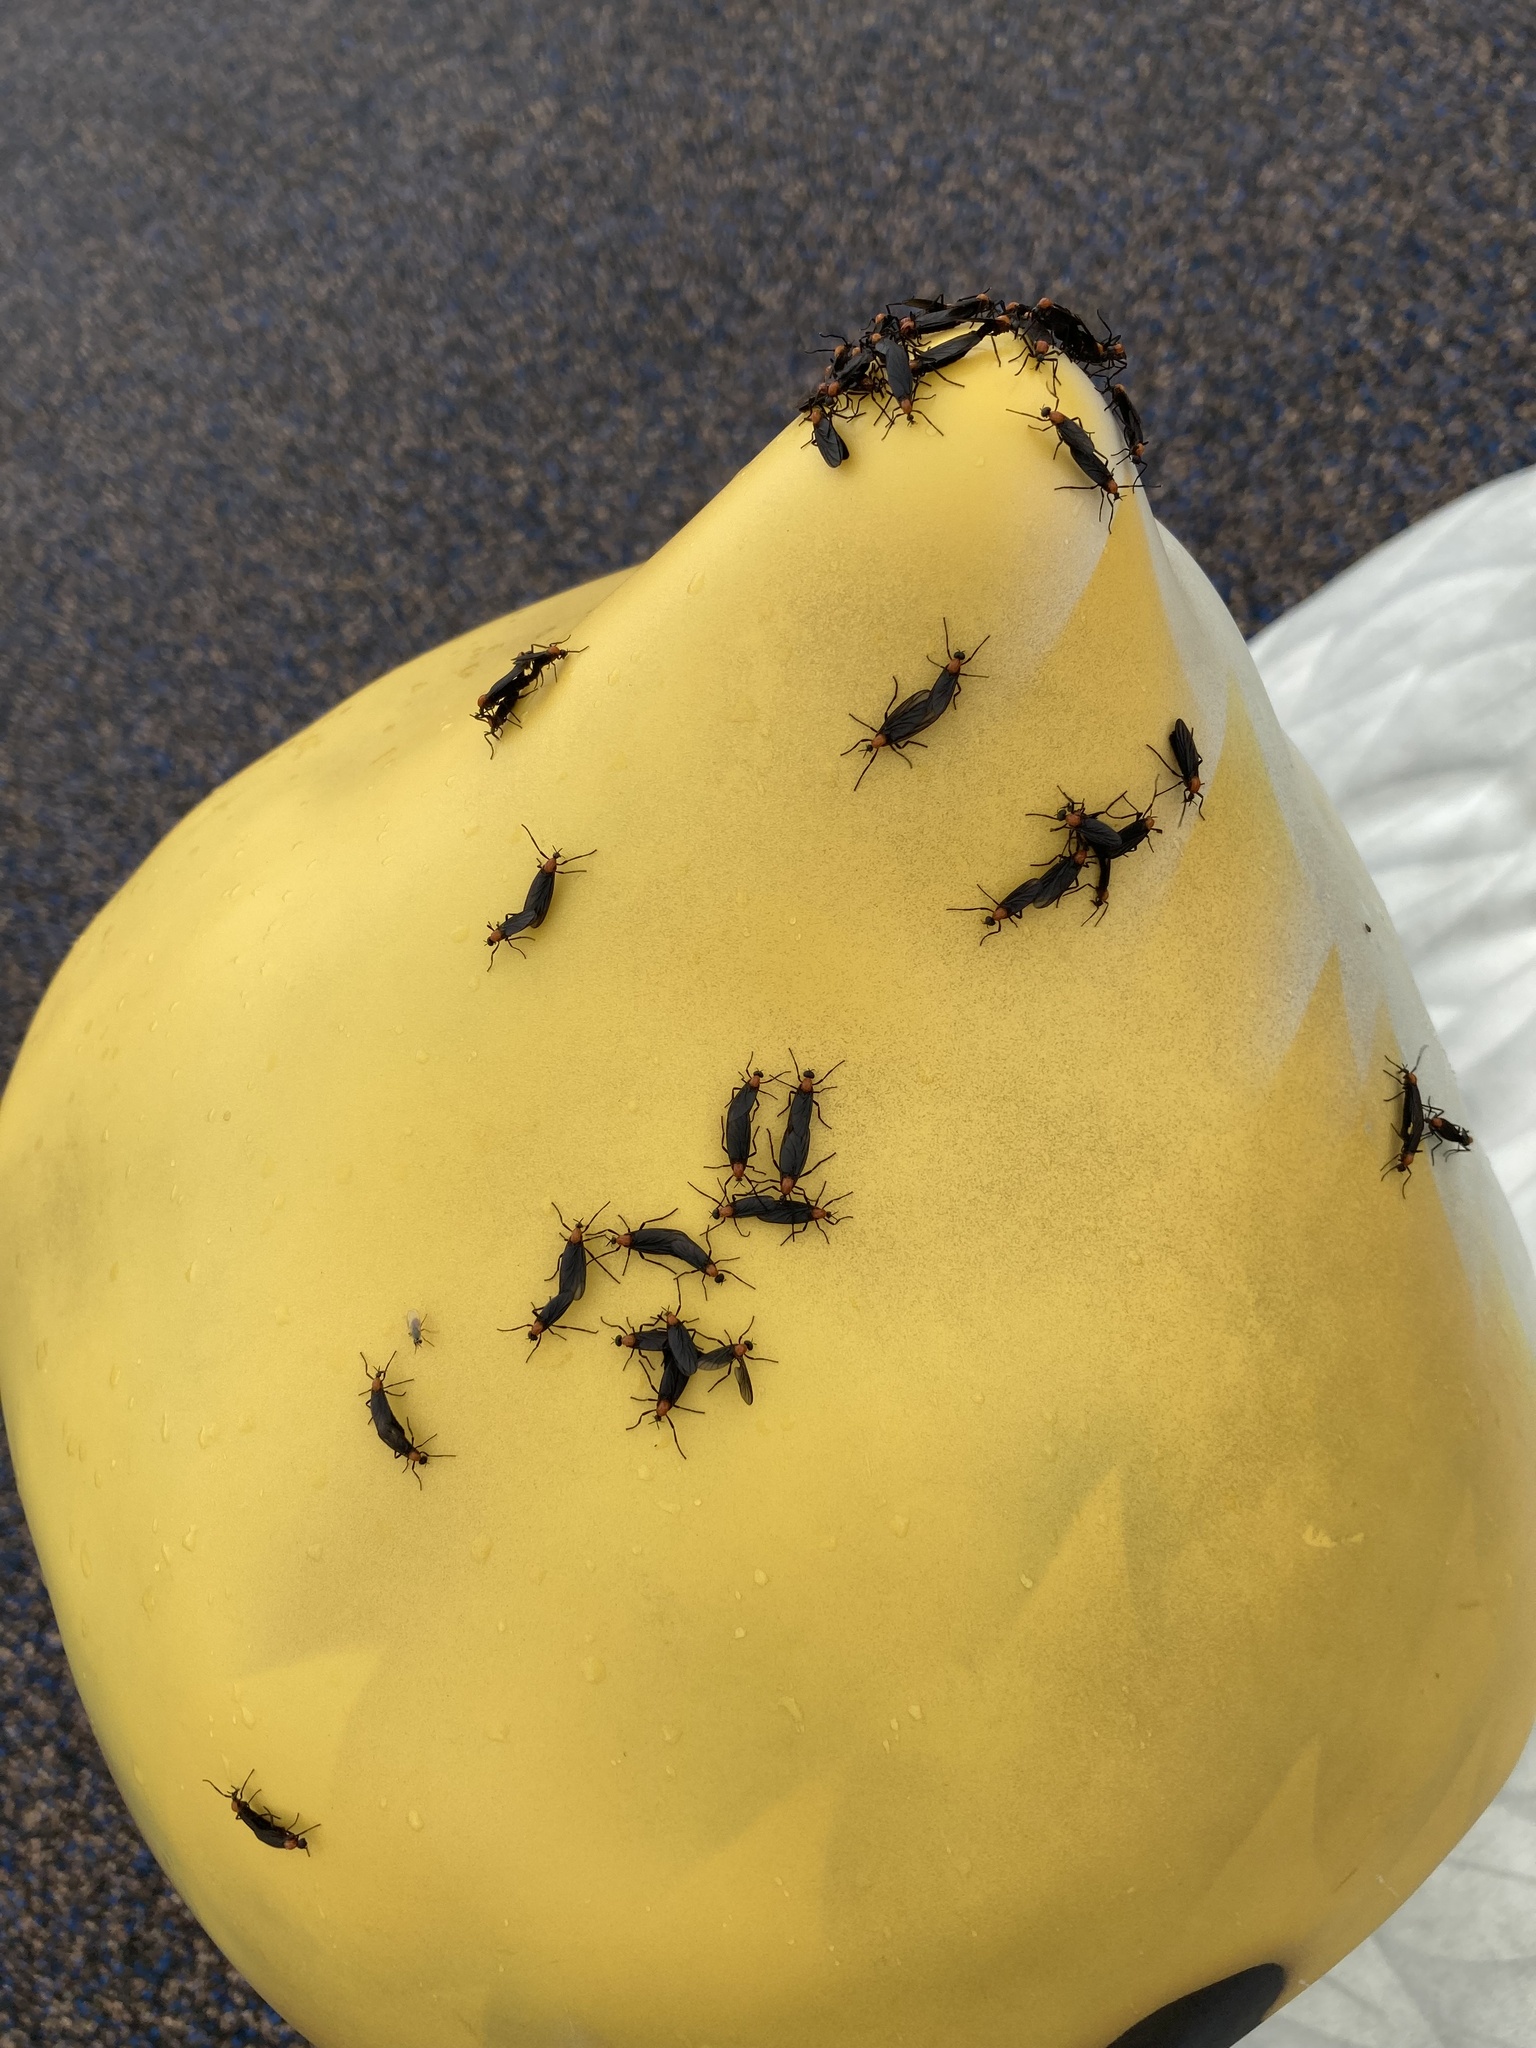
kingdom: Animalia
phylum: Arthropoda
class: Insecta
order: Diptera
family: Bibionidae
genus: Plecia
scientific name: Plecia nearctica
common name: March fly
